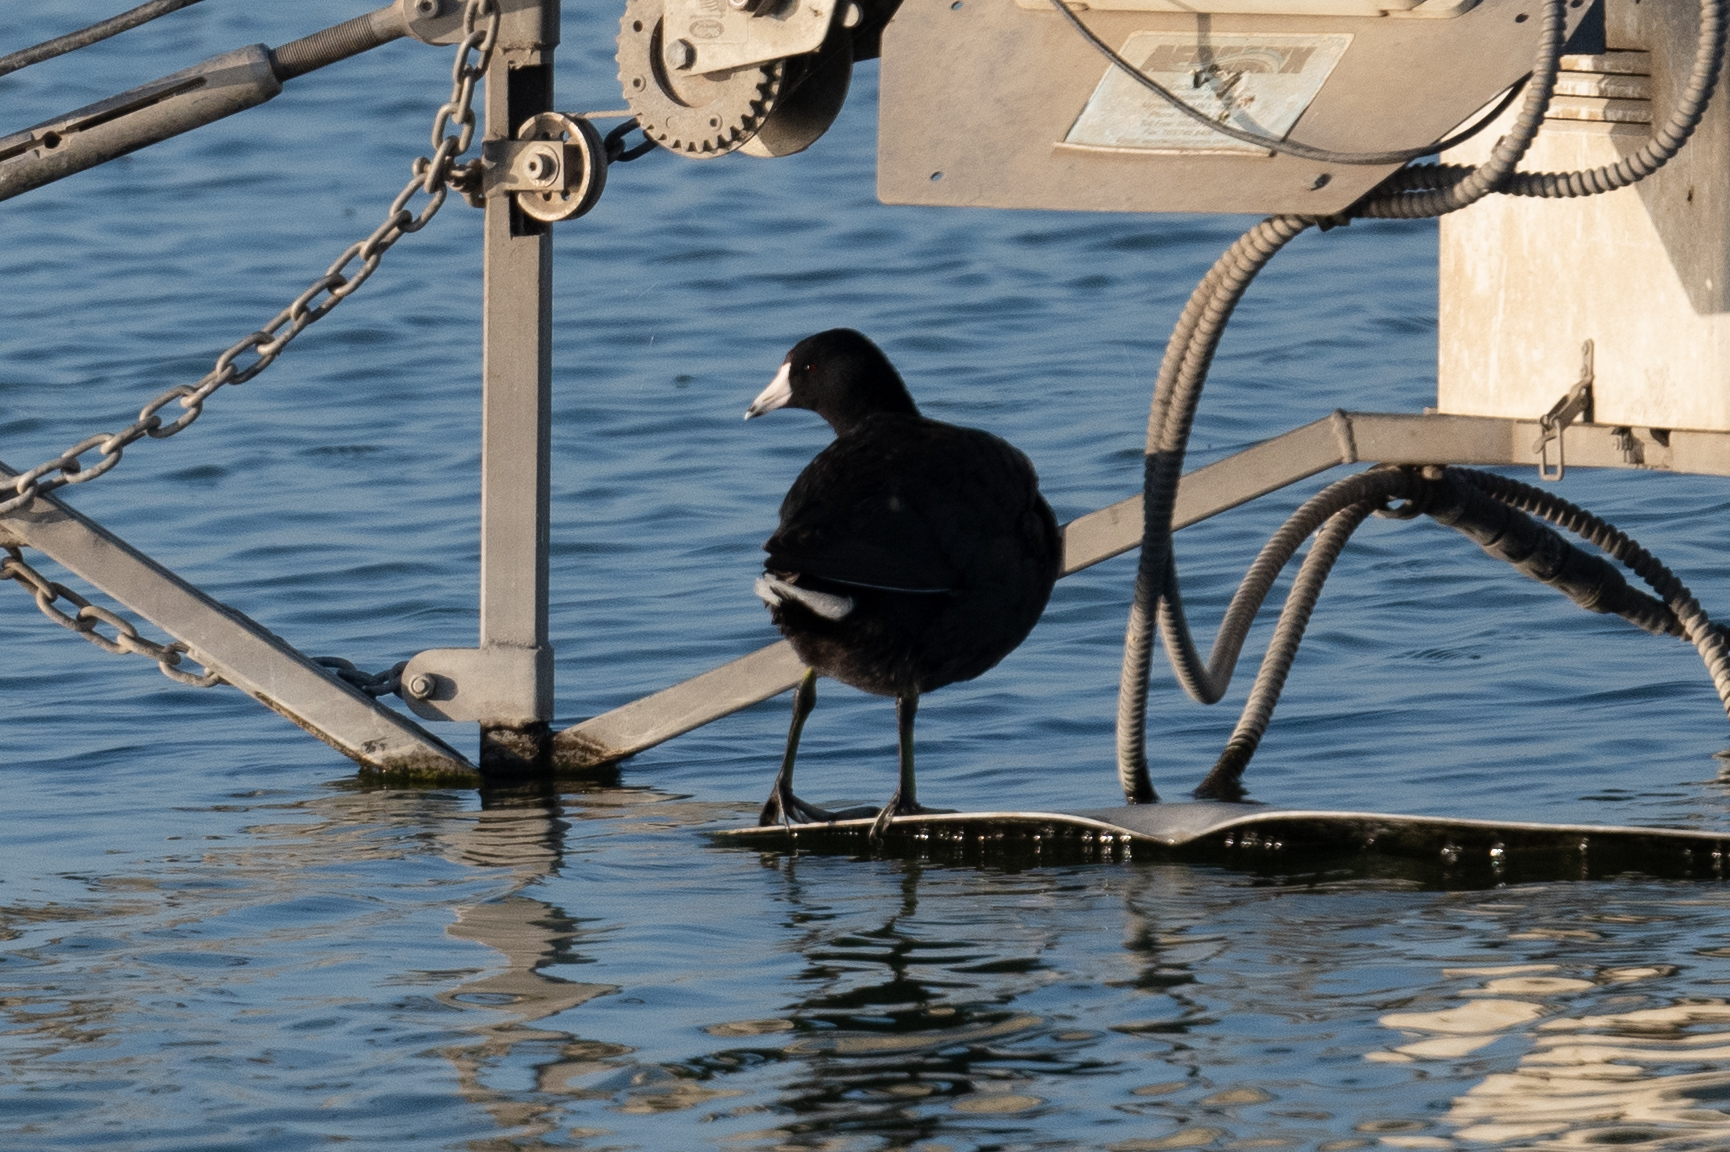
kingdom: Animalia
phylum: Chordata
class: Aves
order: Gruiformes
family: Rallidae
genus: Fulica
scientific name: Fulica americana
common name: American coot
